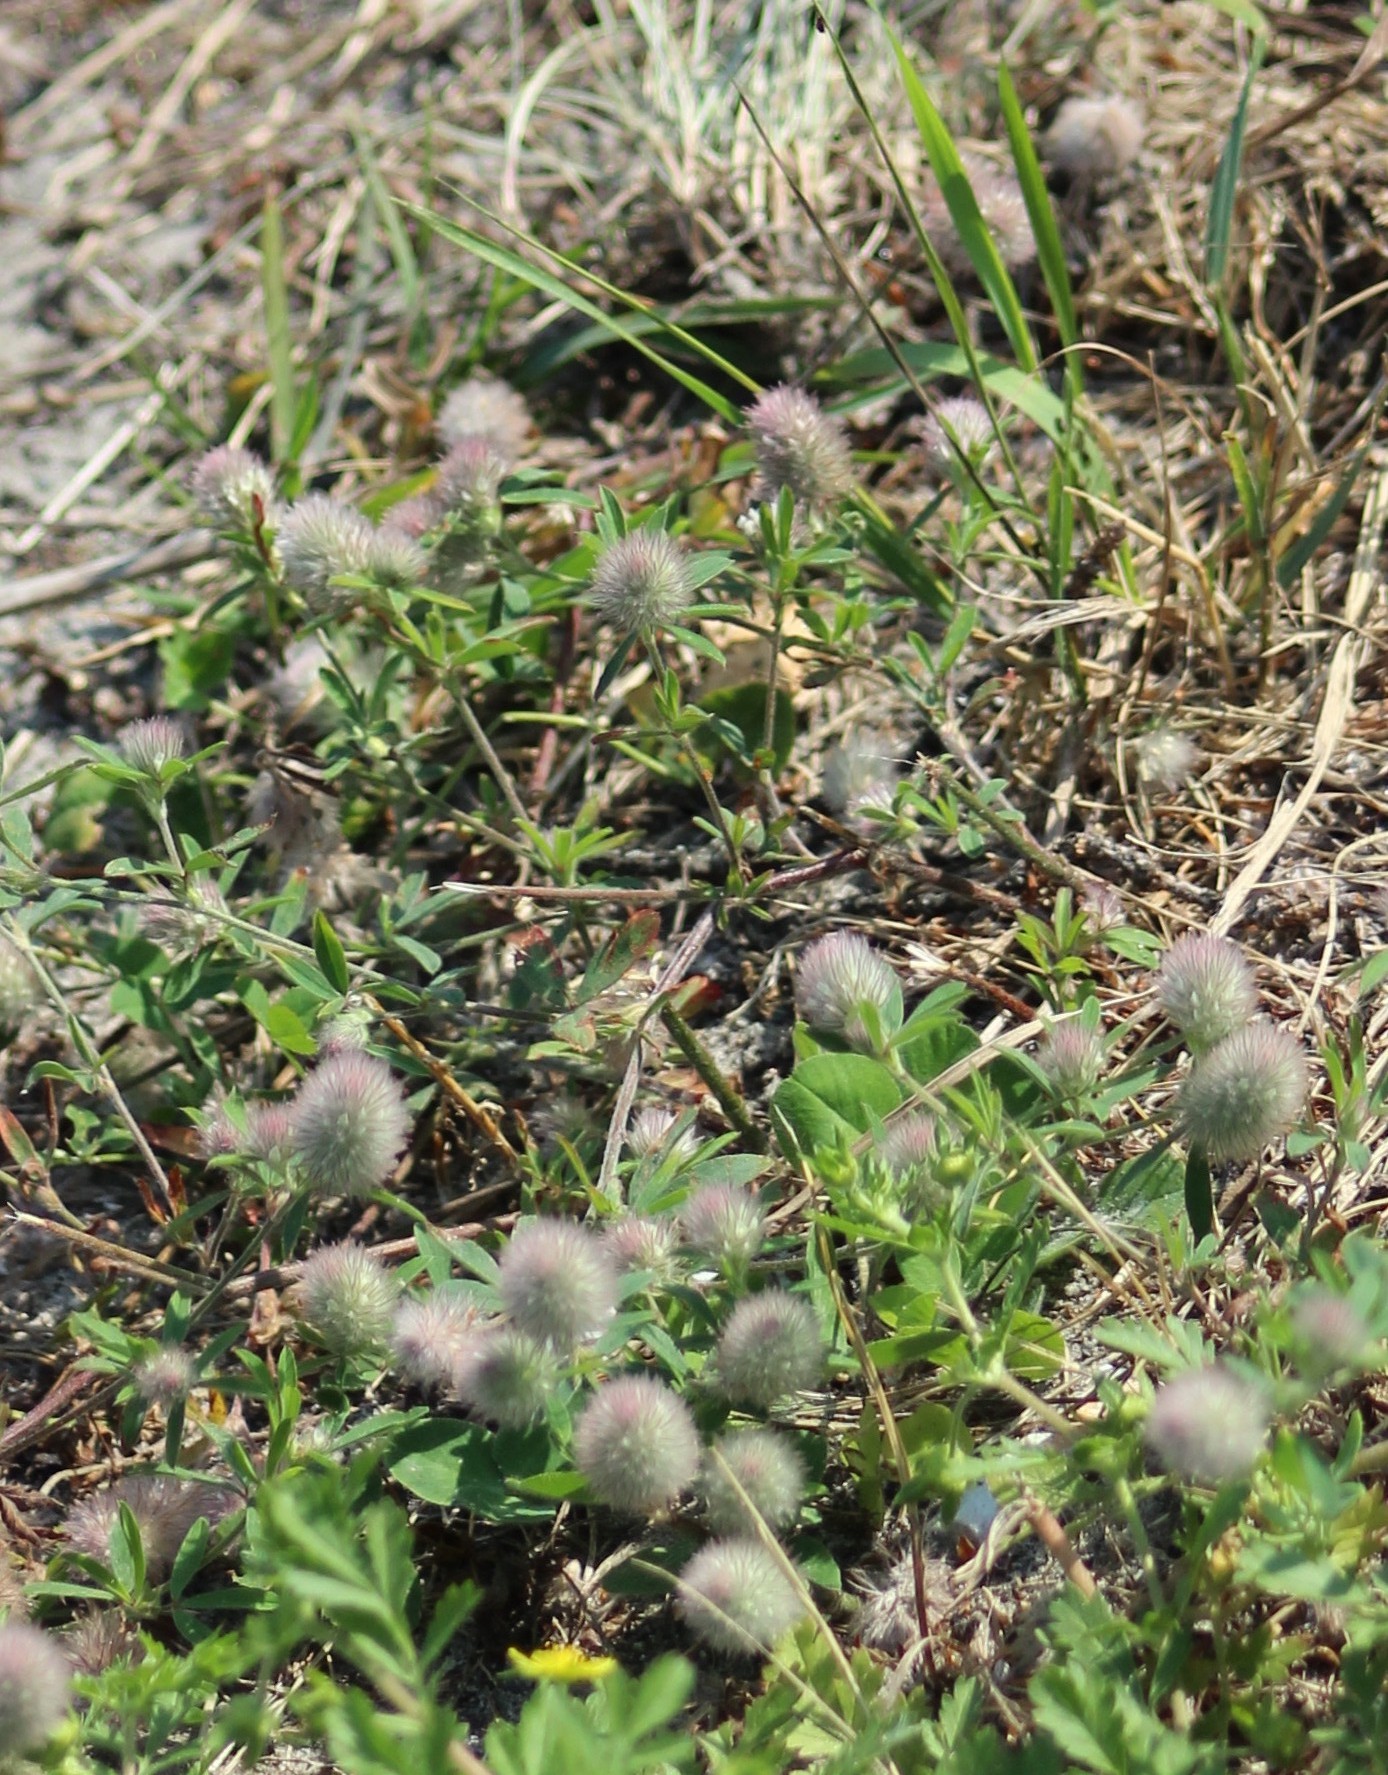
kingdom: Plantae
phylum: Tracheophyta
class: Magnoliopsida
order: Fabales
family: Fabaceae
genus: Trifolium
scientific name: Trifolium arvense
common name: Hare's-foot clover
